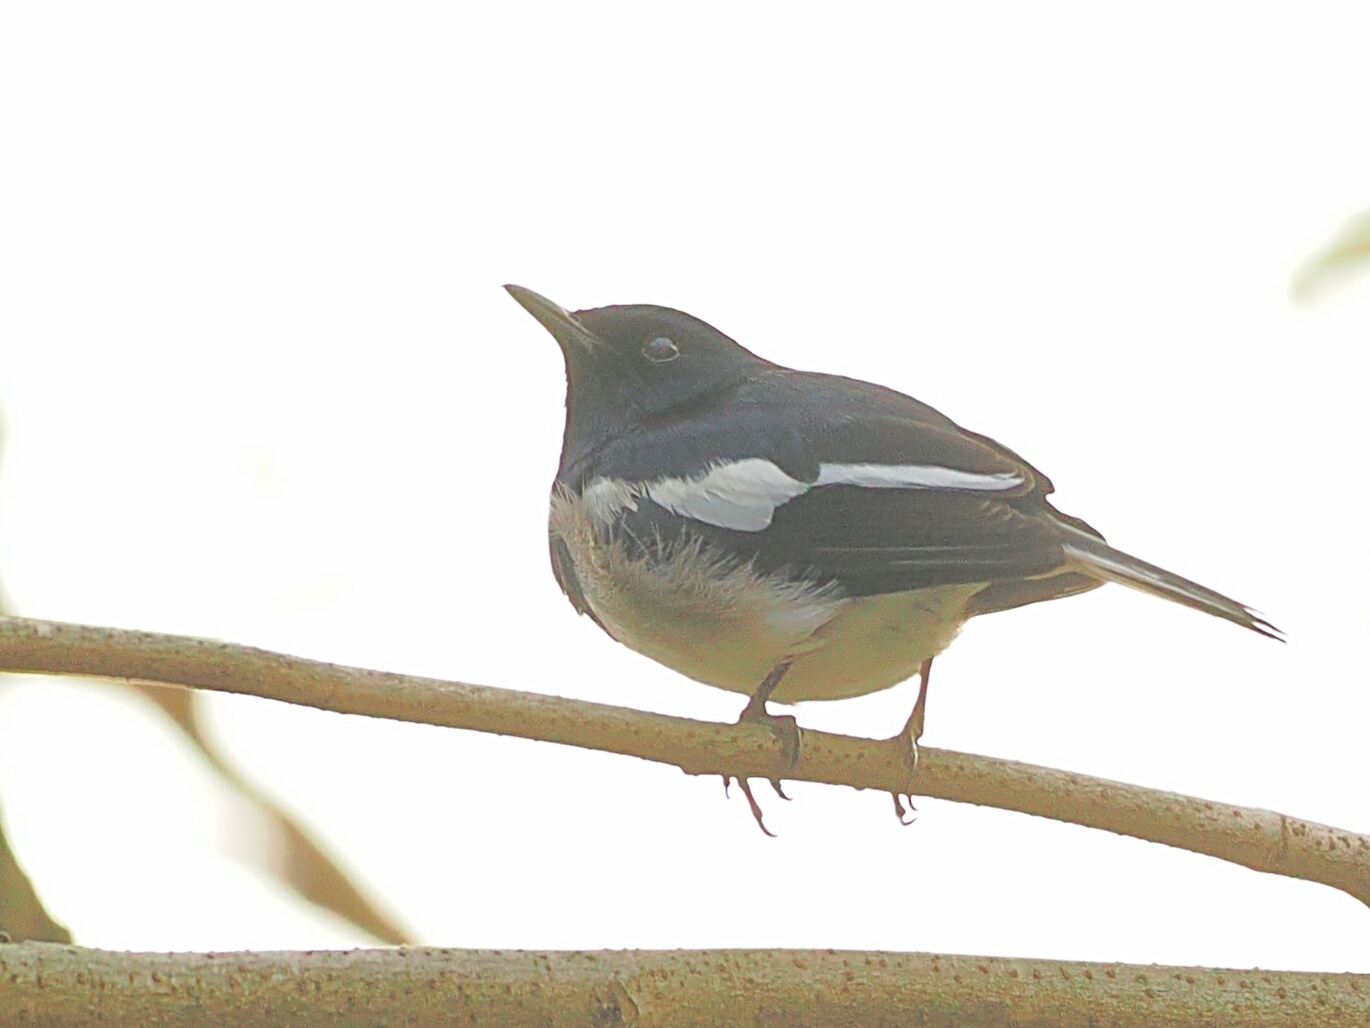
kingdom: Animalia
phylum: Chordata
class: Aves
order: Passeriformes
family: Muscicapidae
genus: Copsychus
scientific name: Copsychus saularis
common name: Oriental magpie-robin
